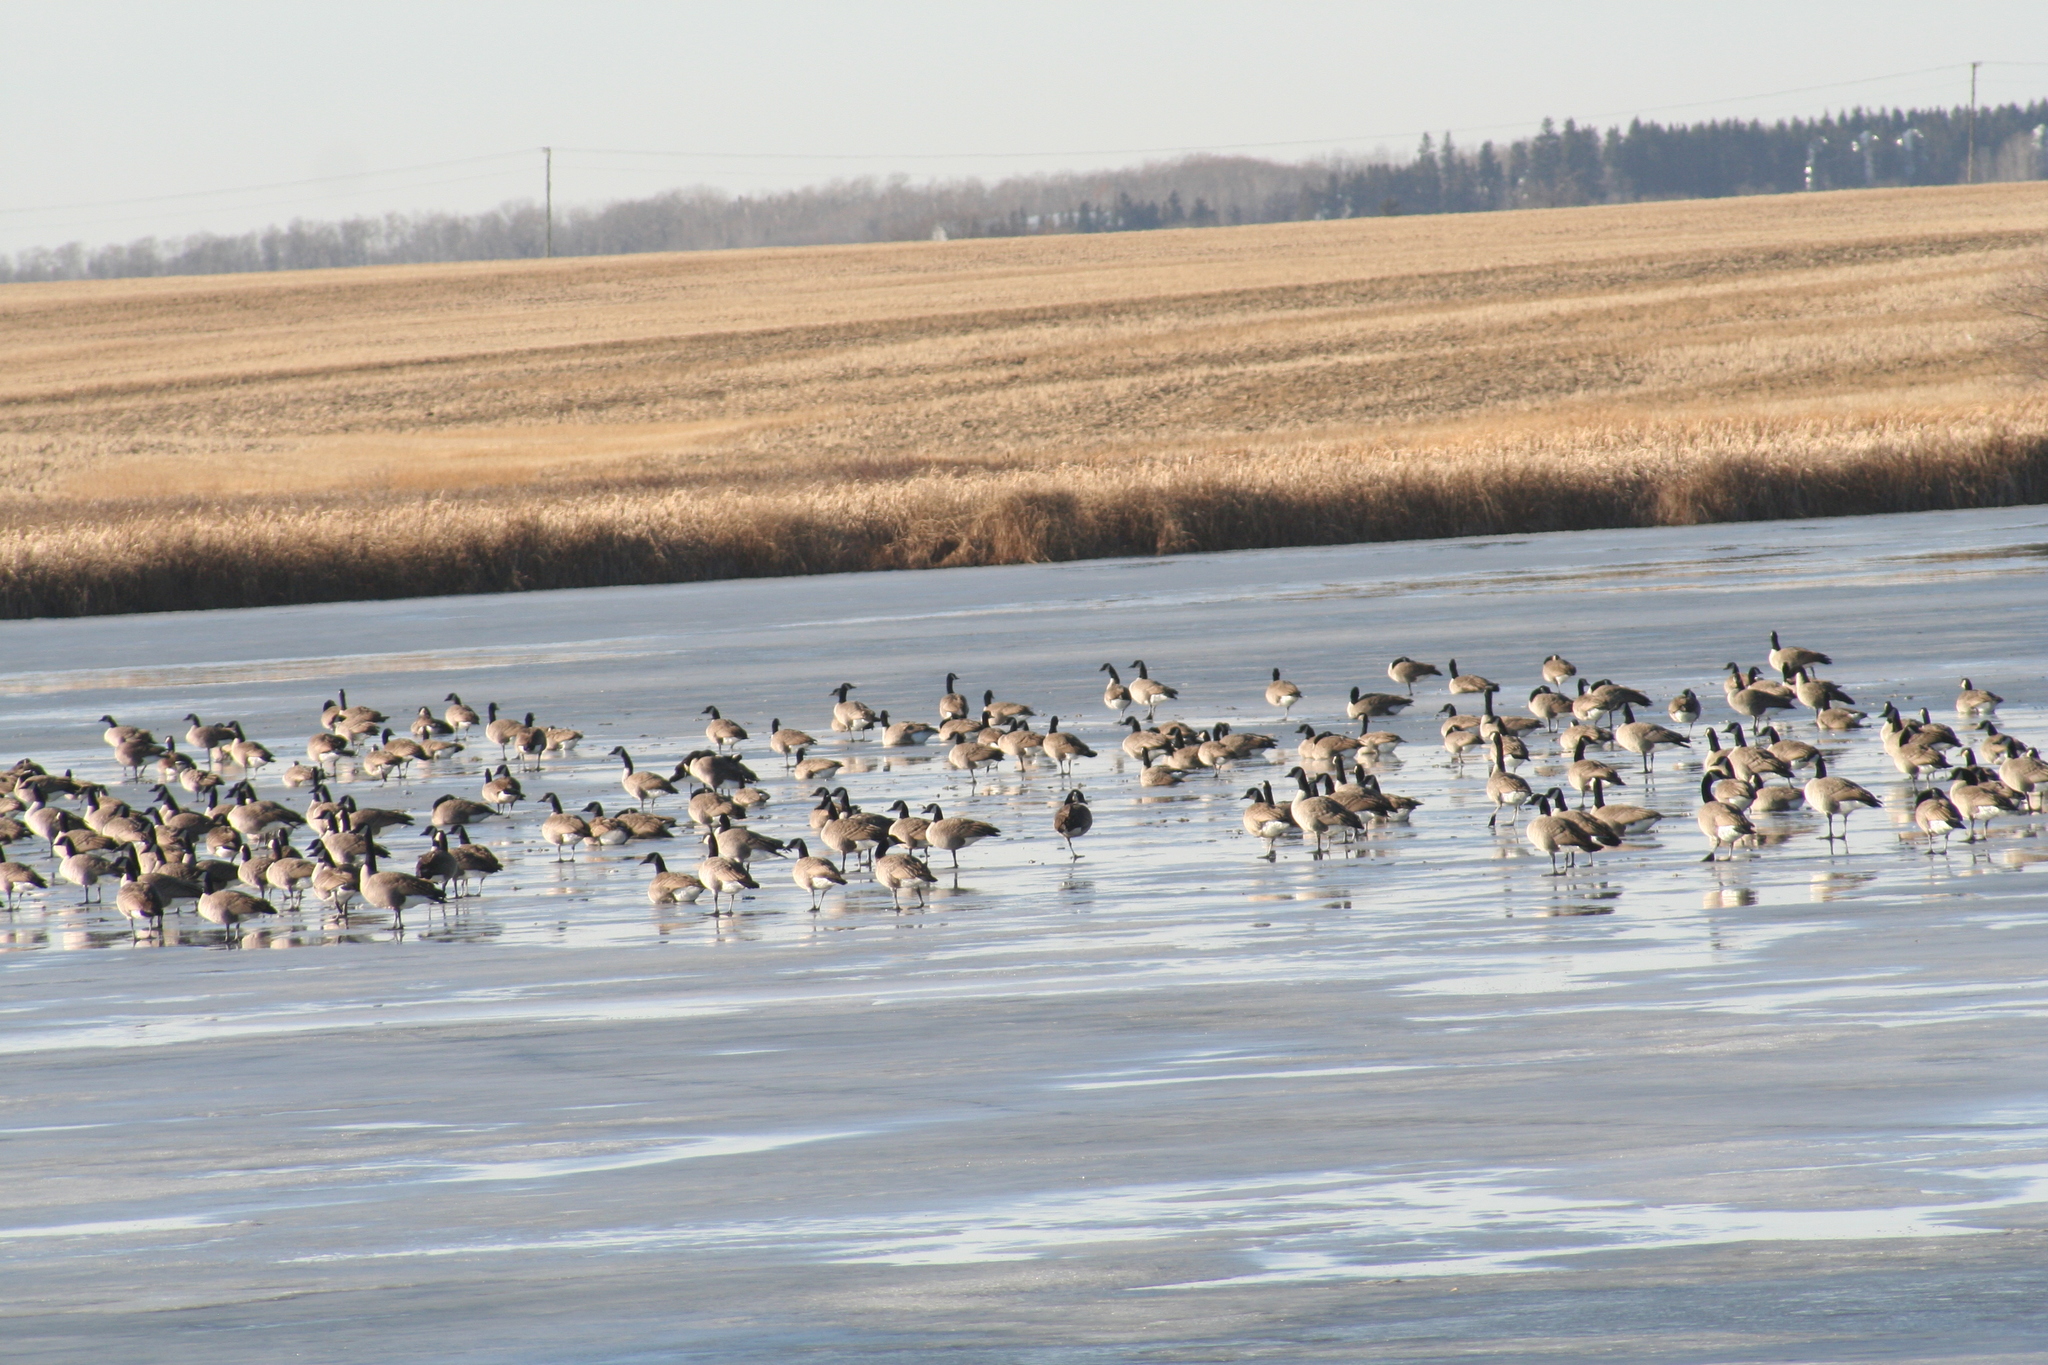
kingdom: Animalia
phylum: Chordata
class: Aves
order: Anseriformes
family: Anatidae
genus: Branta
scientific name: Branta canadensis
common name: Canada goose
